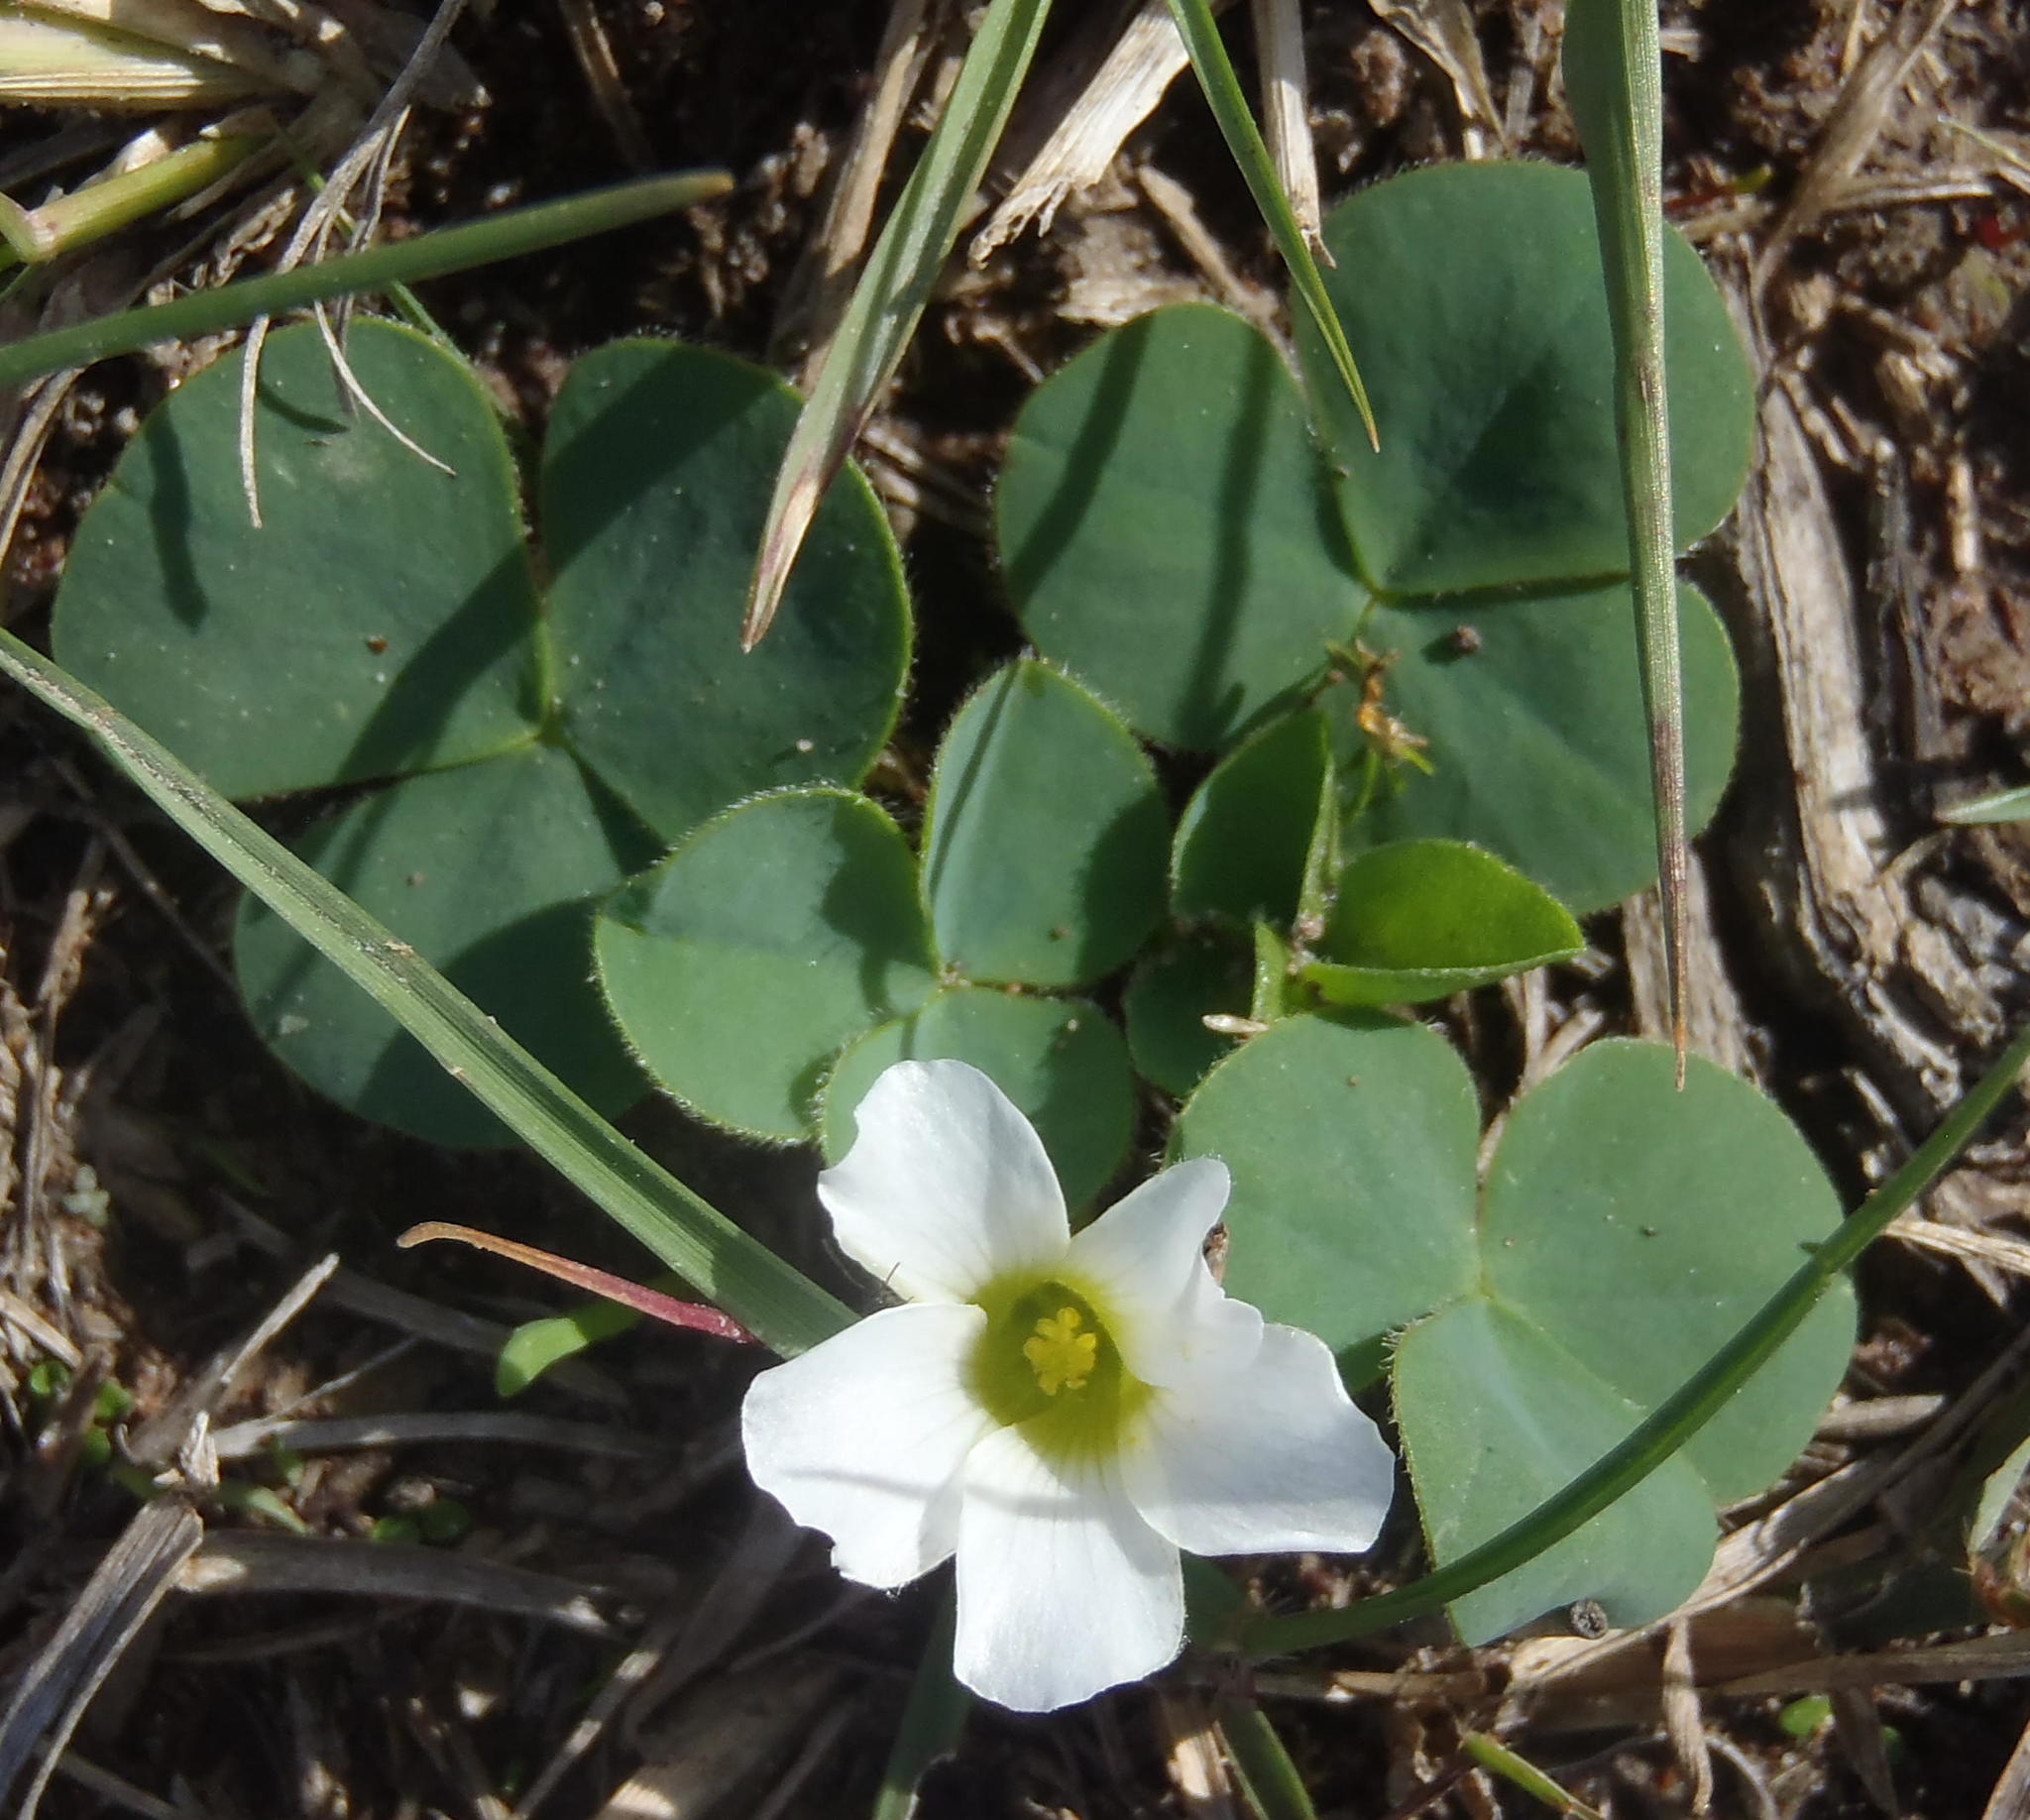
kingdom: Plantae
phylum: Tracheophyta
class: Magnoliopsida
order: Oxalidales
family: Oxalidaceae
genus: Oxalis
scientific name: Oxalis purpurea
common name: Purple woodsorrel
